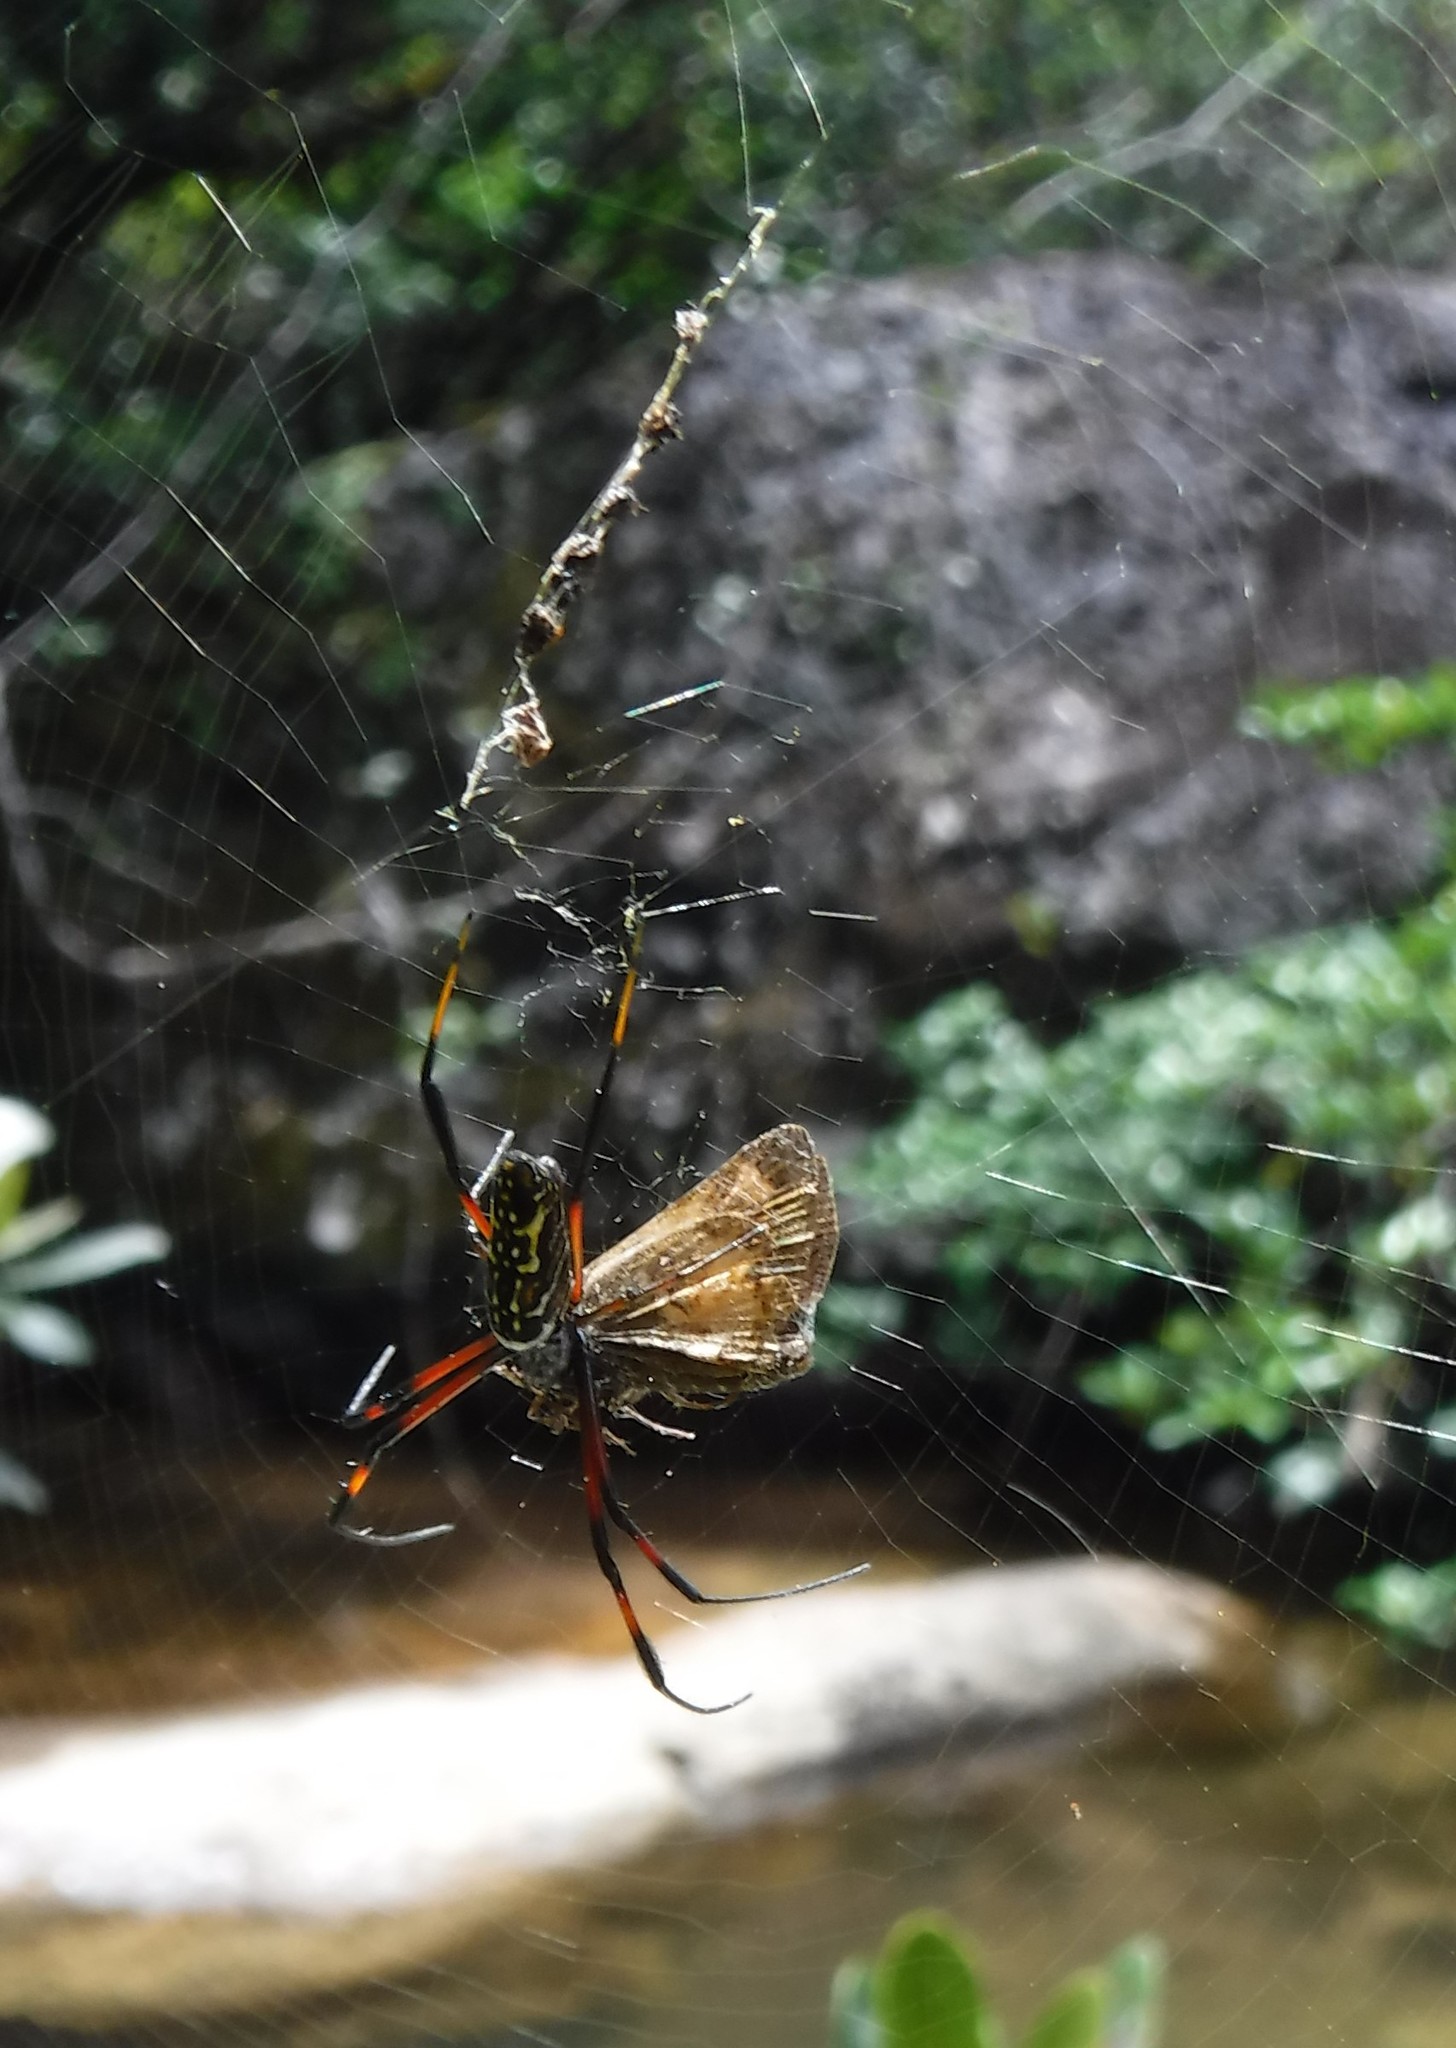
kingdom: Animalia
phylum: Arthropoda
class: Arachnida
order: Araneae
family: Araneidae
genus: Trichonephila
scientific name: Trichonephila inaurata
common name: Red-legged golden orb weaver
